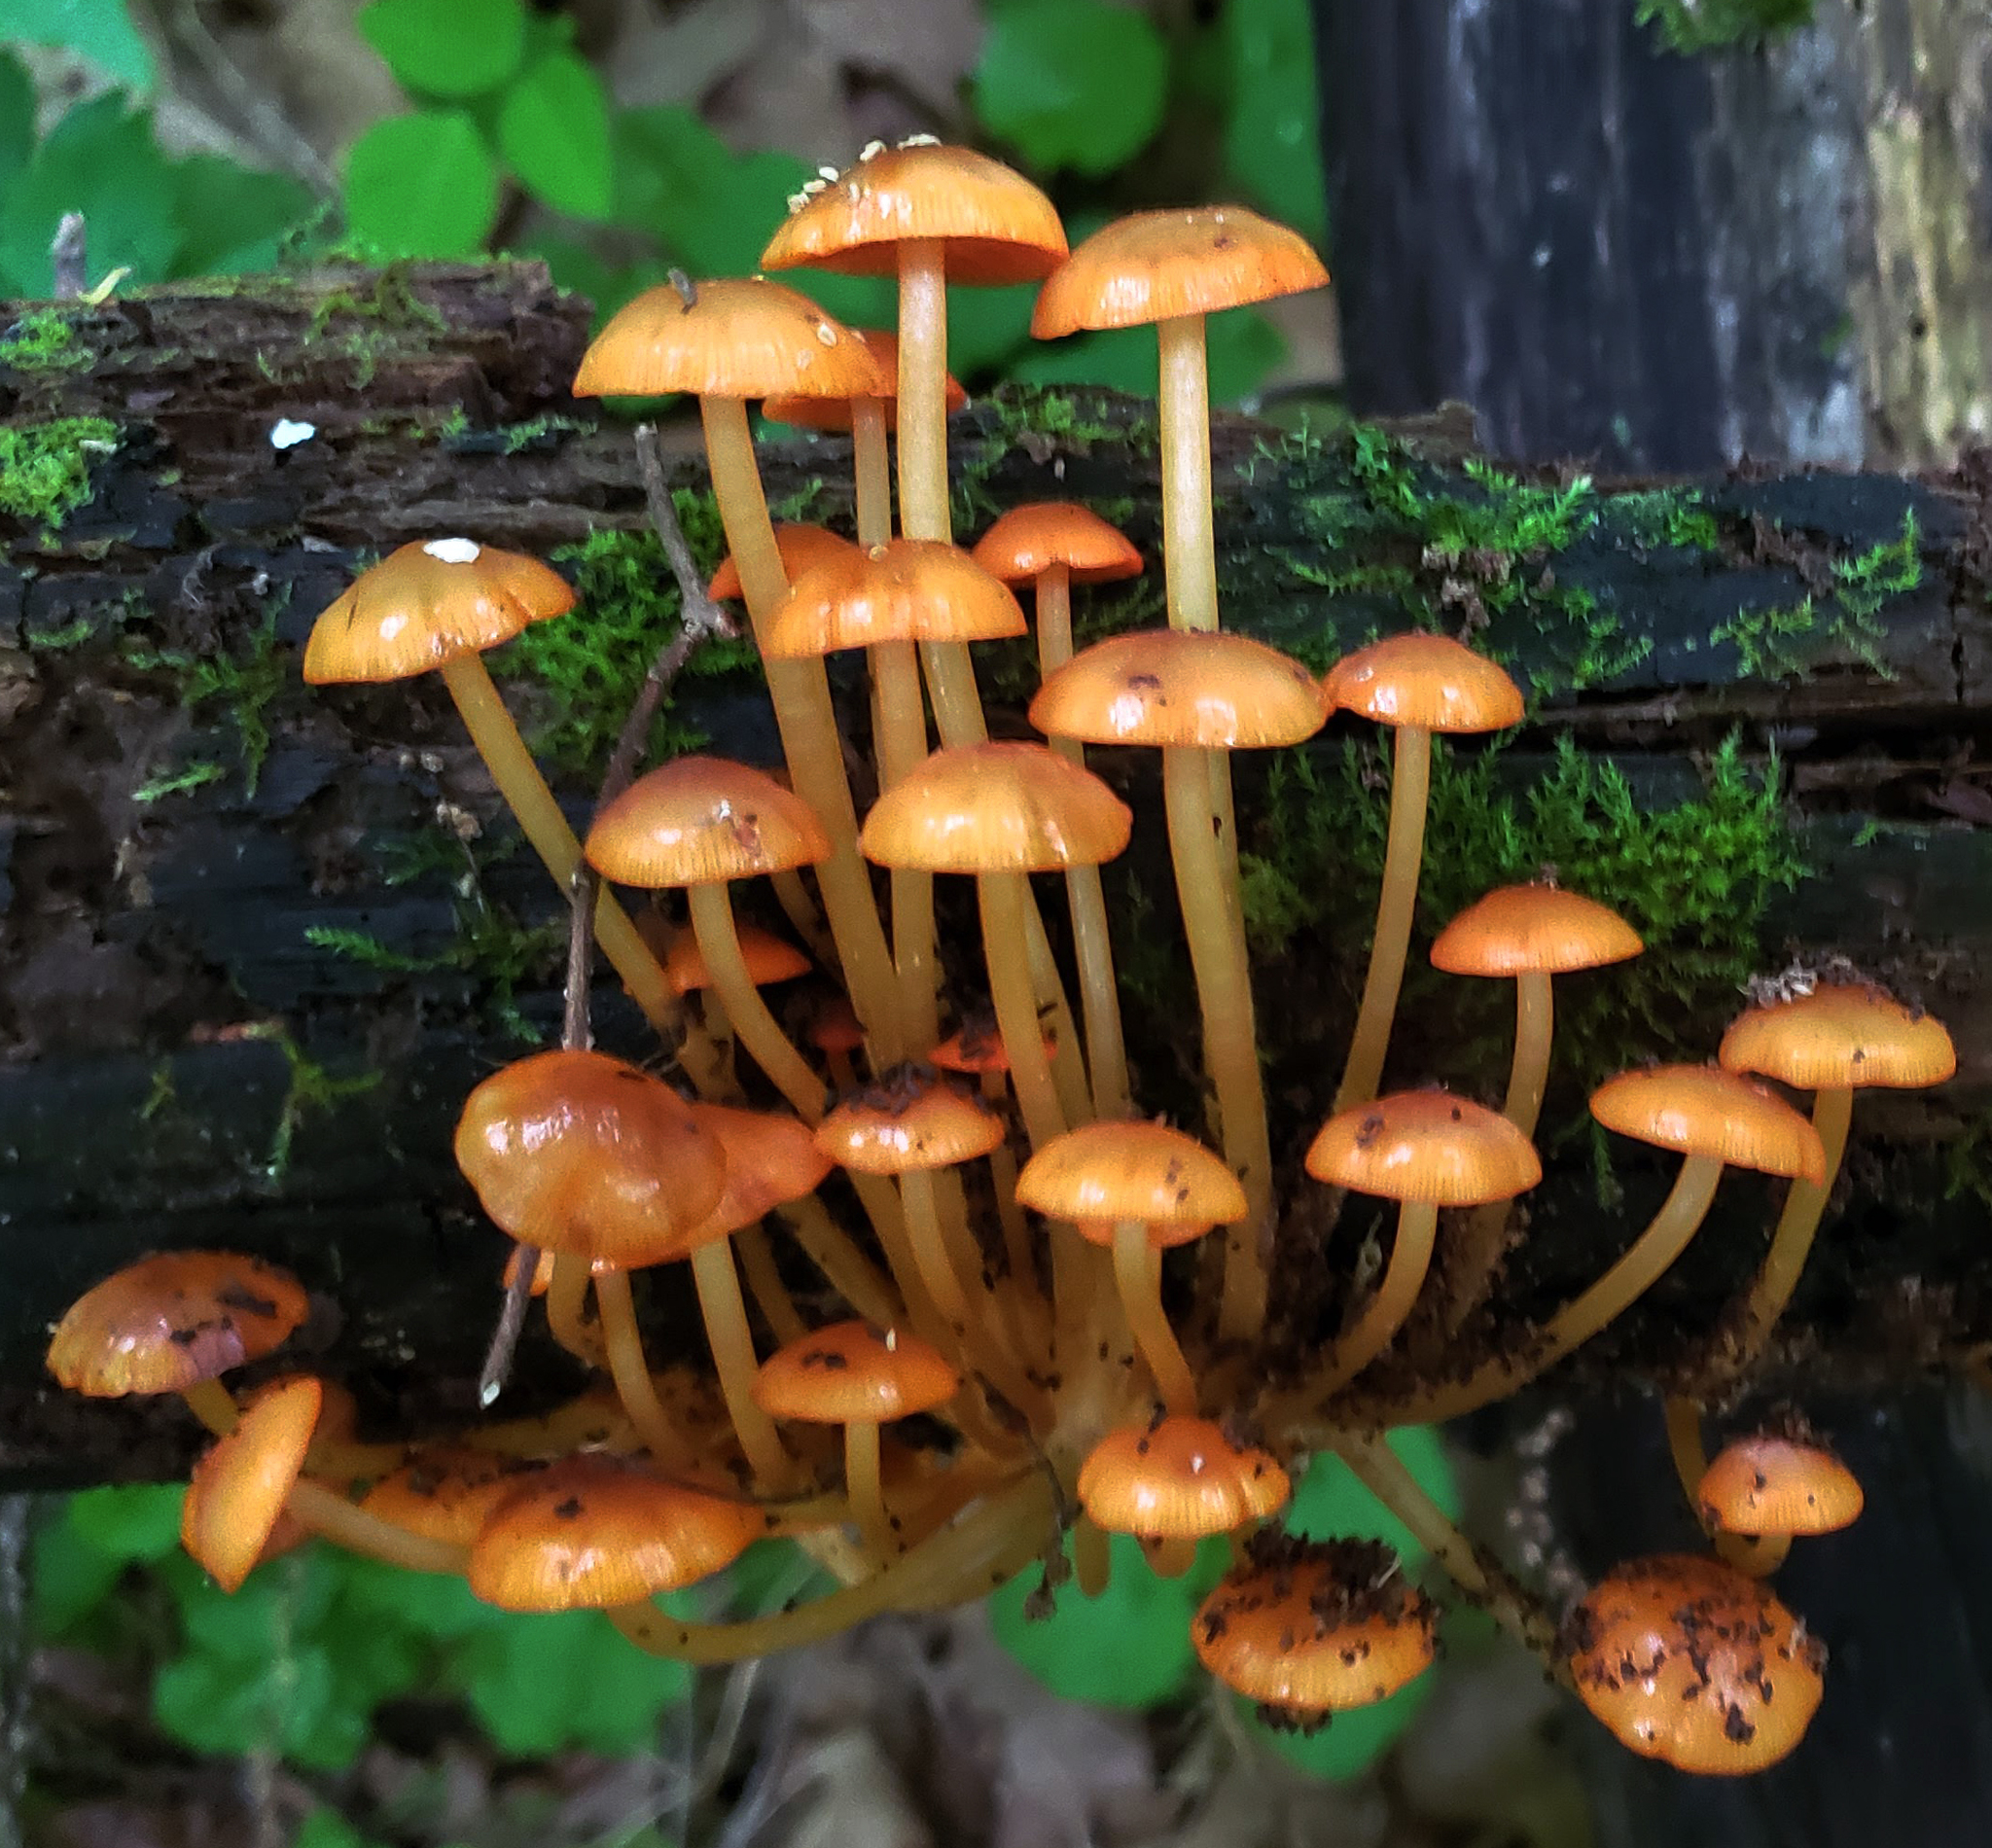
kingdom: Fungi
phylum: Basidiomycota
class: Agaricomycetes
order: Agaricales
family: Mycenaceae
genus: Mycena
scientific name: Mycena leaiana
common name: Orange mycena
